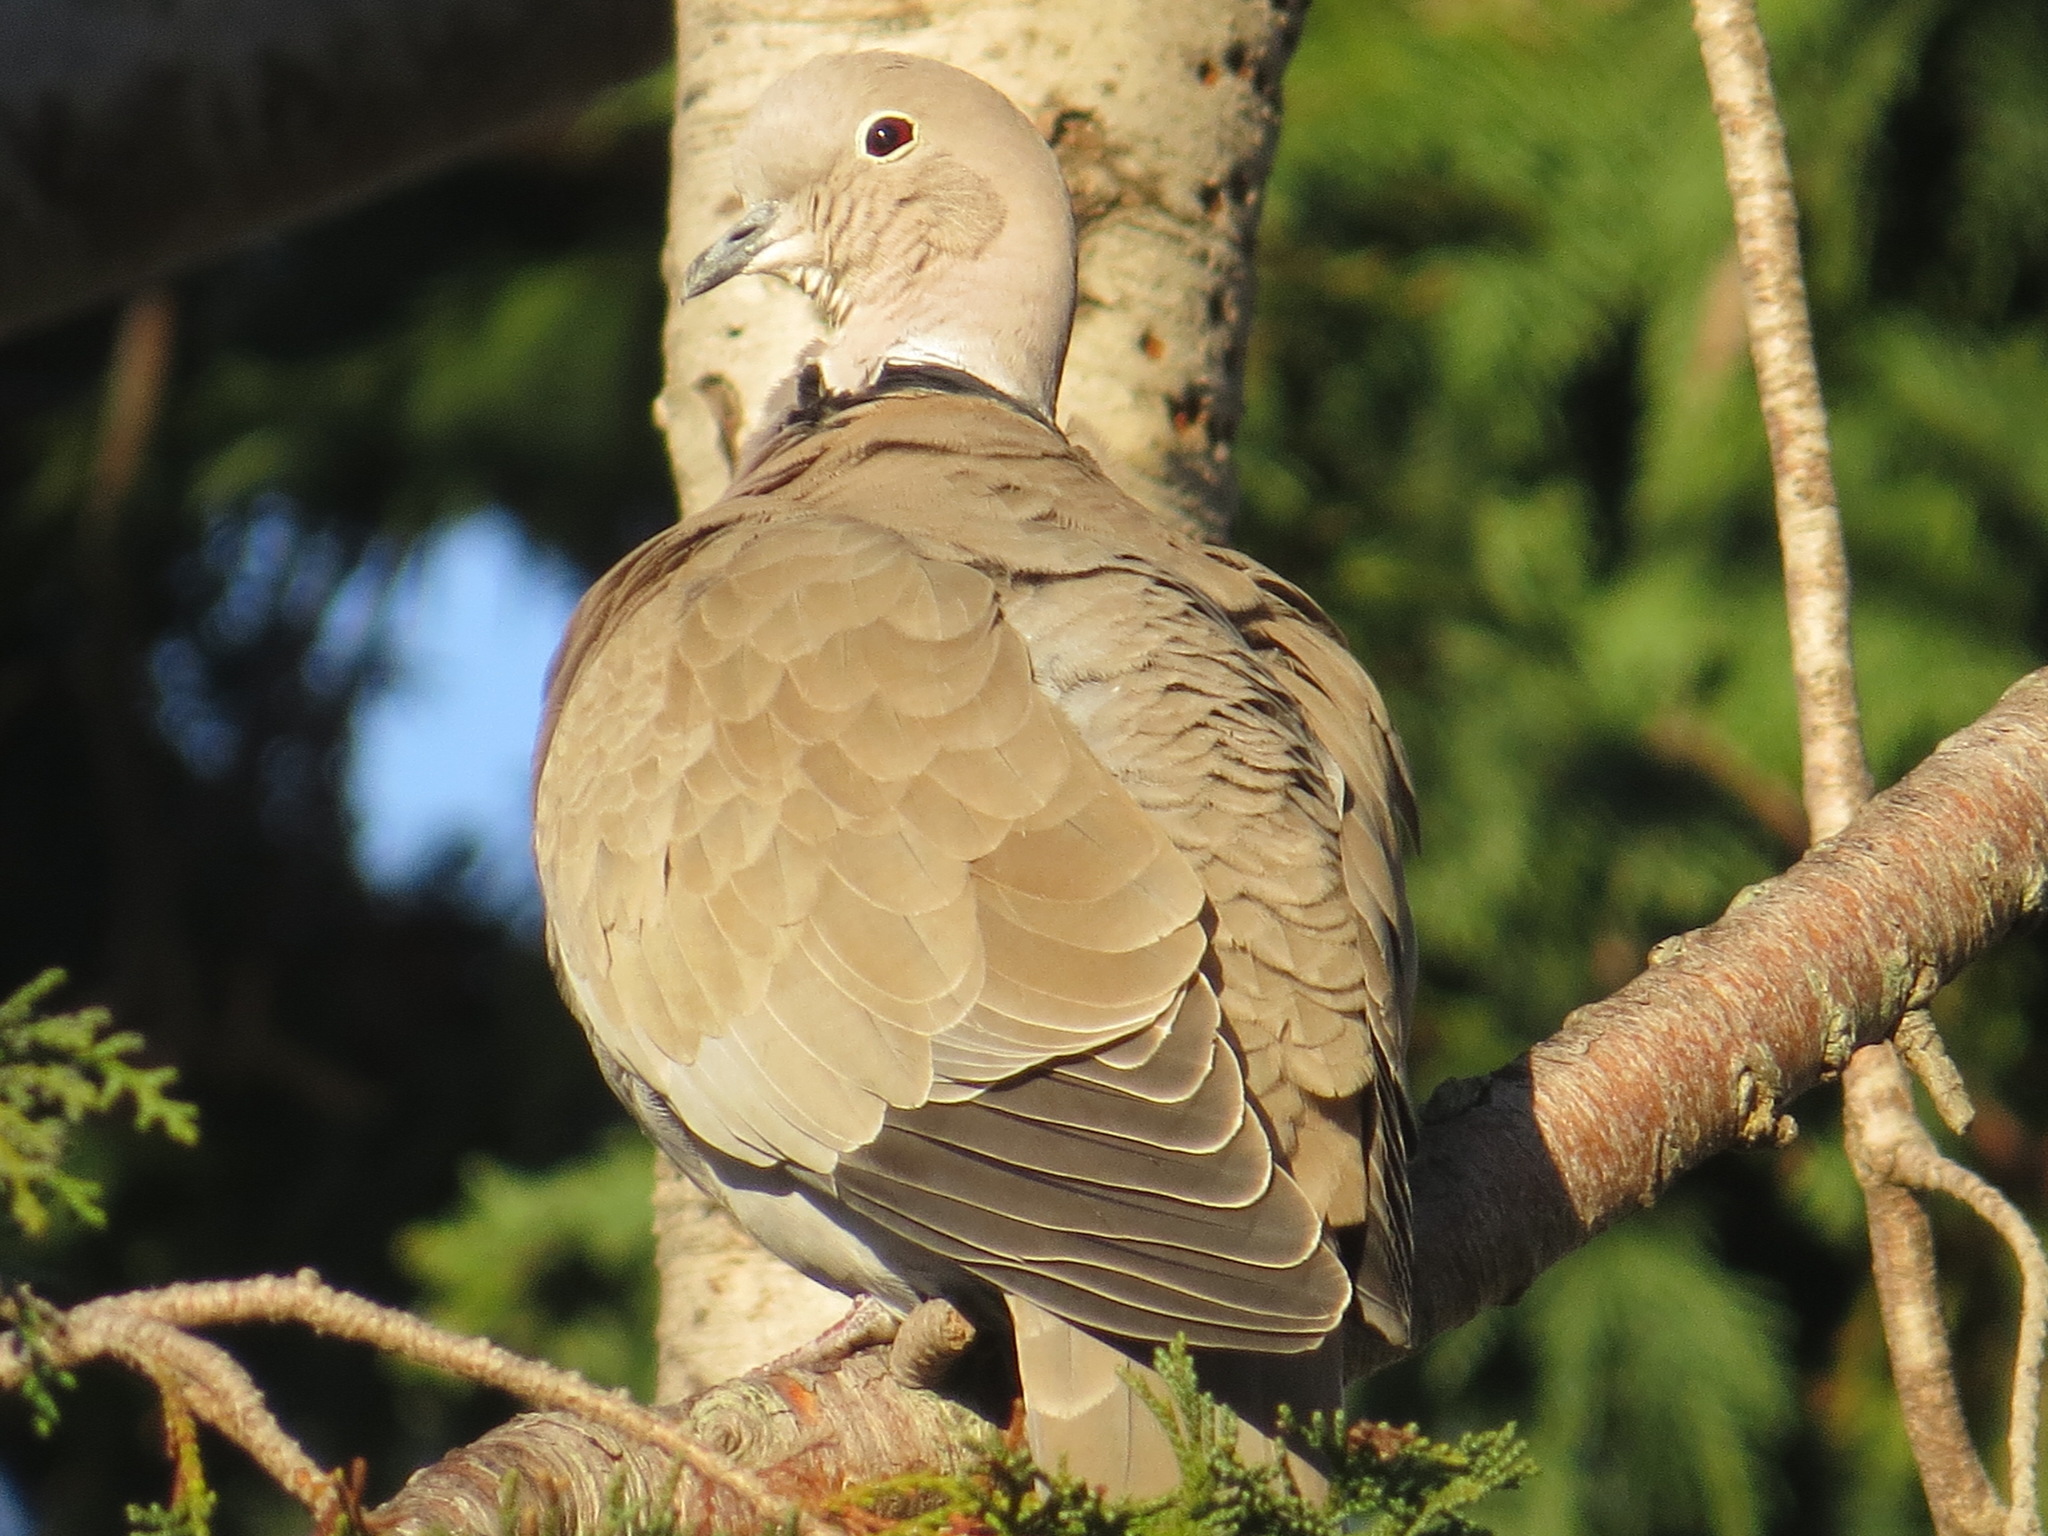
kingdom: Animalia
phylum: Chordata
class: Aves
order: Columbiformes
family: Columbidae
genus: Streptopelia
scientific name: Streptopelia decaocto
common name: Eurasian collared dove
